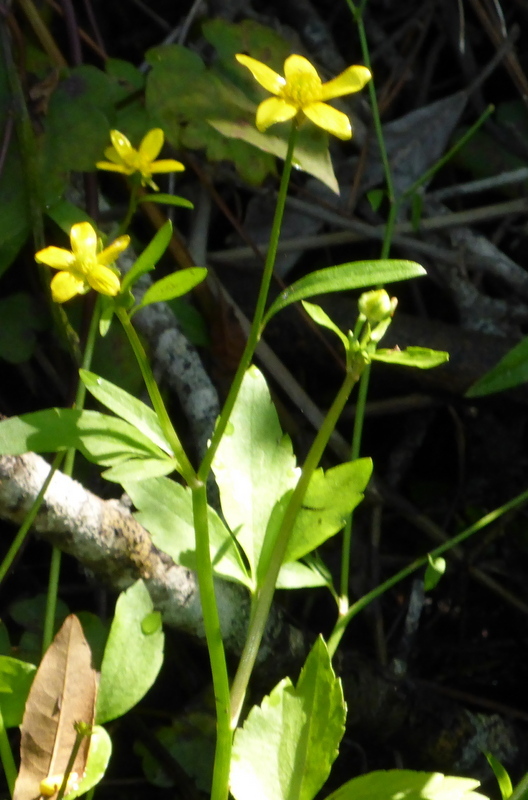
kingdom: Plantae
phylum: Tracheophyta
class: Magnoliopsida
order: Ranunculales
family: Ranunculaceae
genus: Ranunculus
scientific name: Ranunculus hispidus
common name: Bristly buttercup
